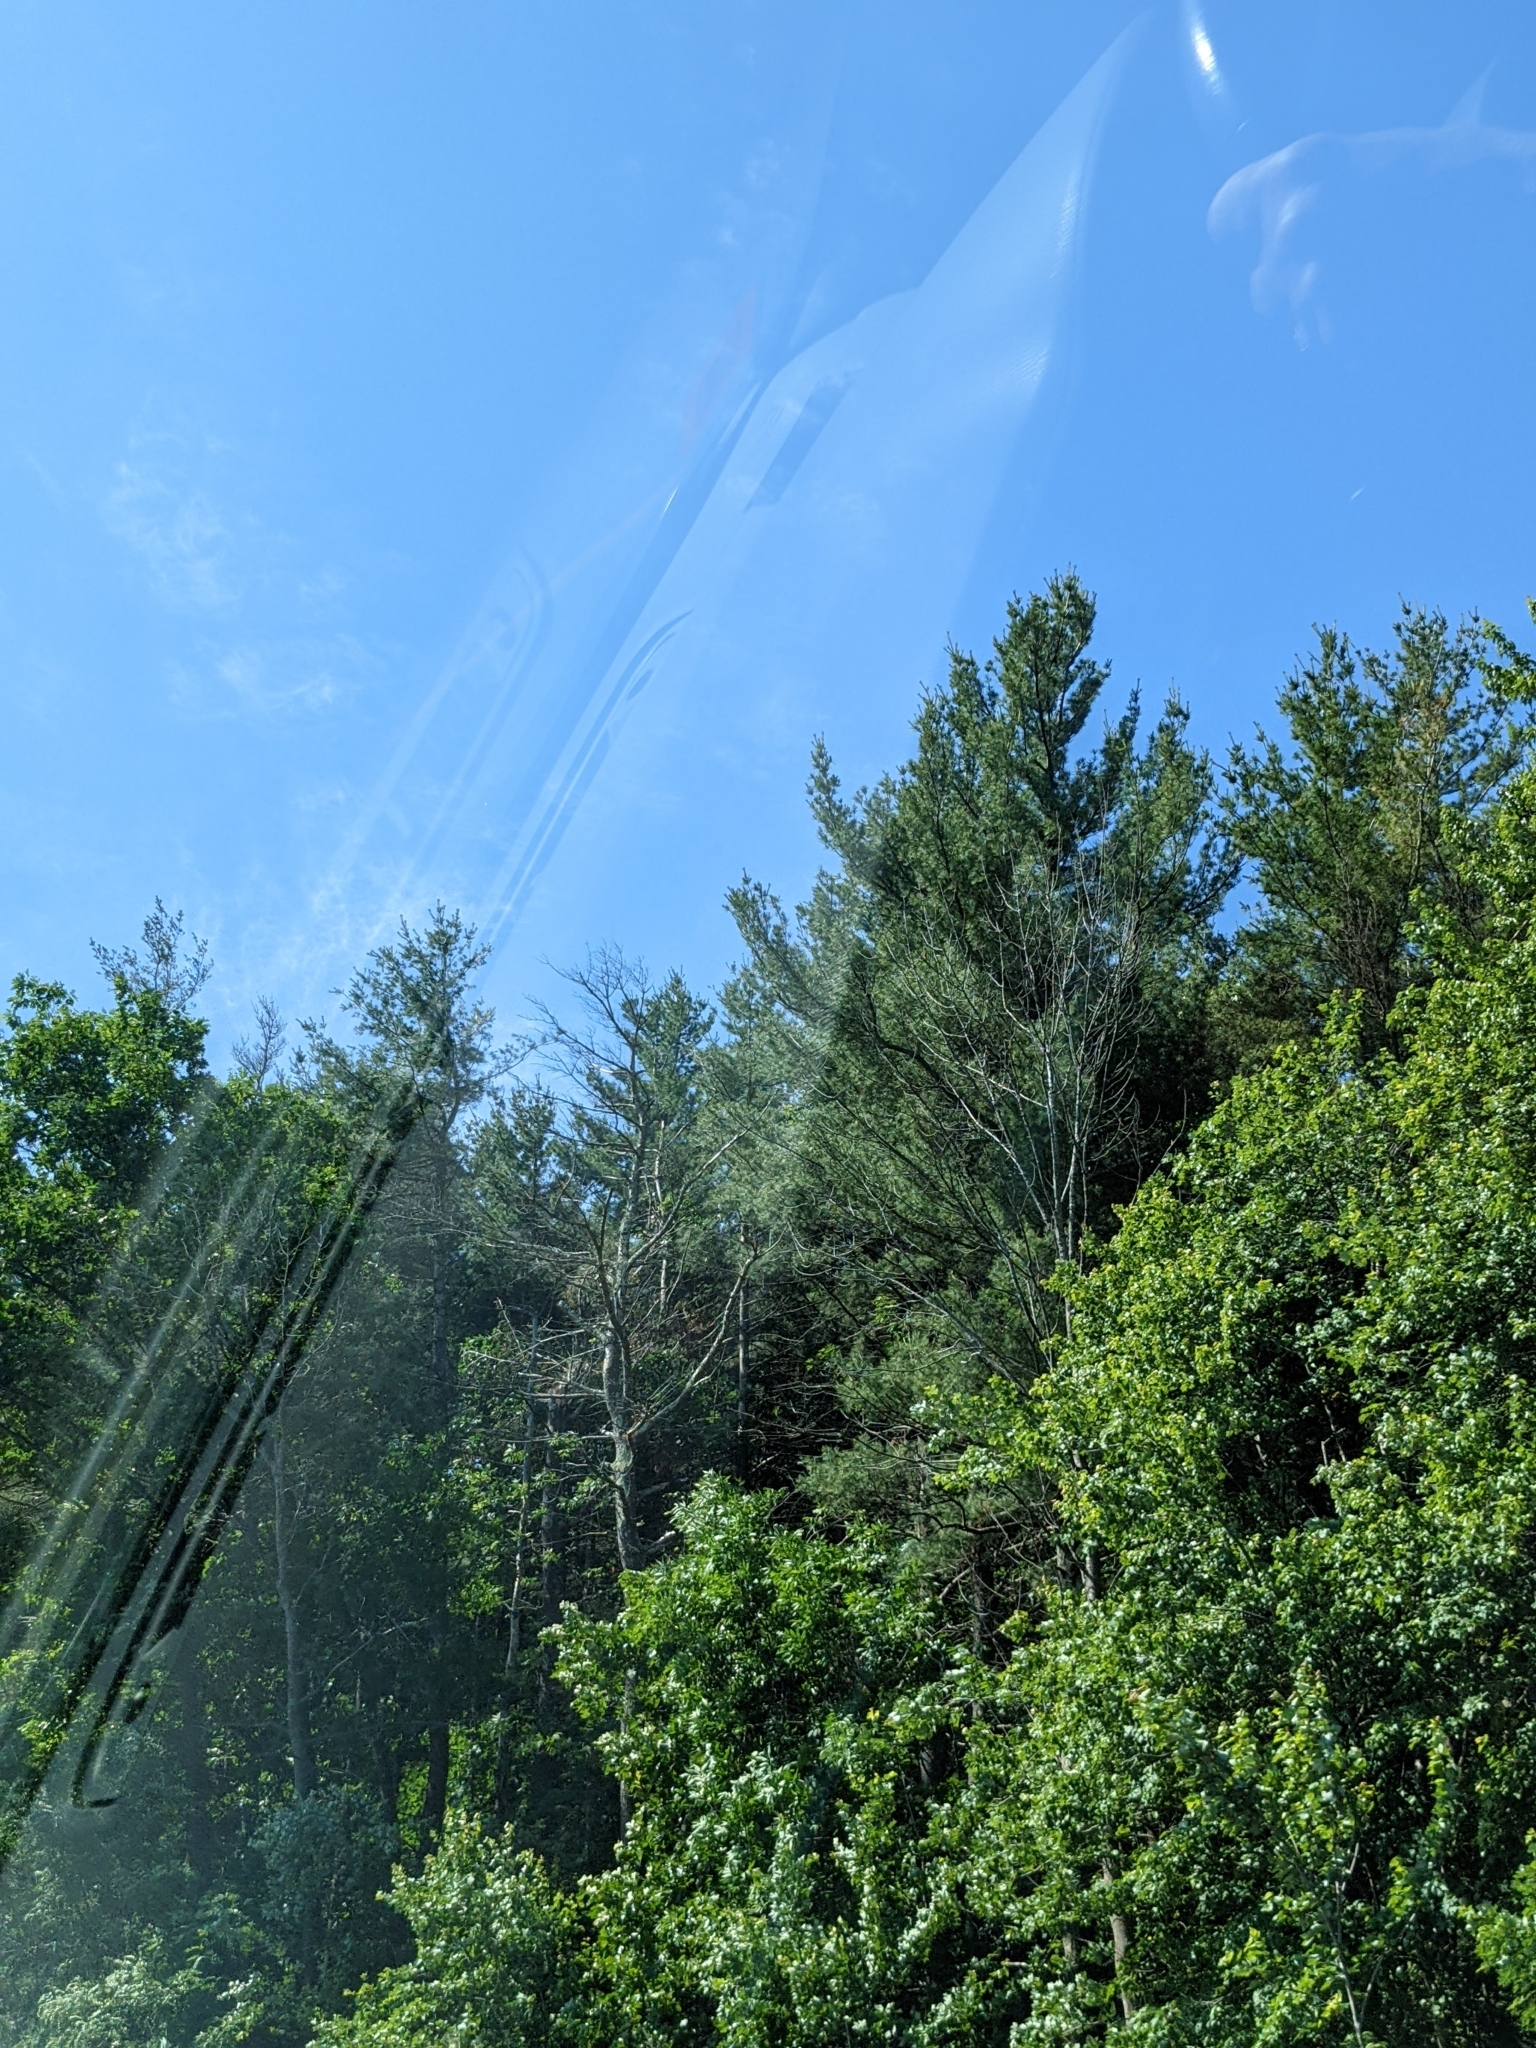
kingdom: Plantae
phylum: Tracheophyta
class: Pinopsida
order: Pinales
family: Pinaceae
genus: Pinus
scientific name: Pinus strobus
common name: Weymouth pine
